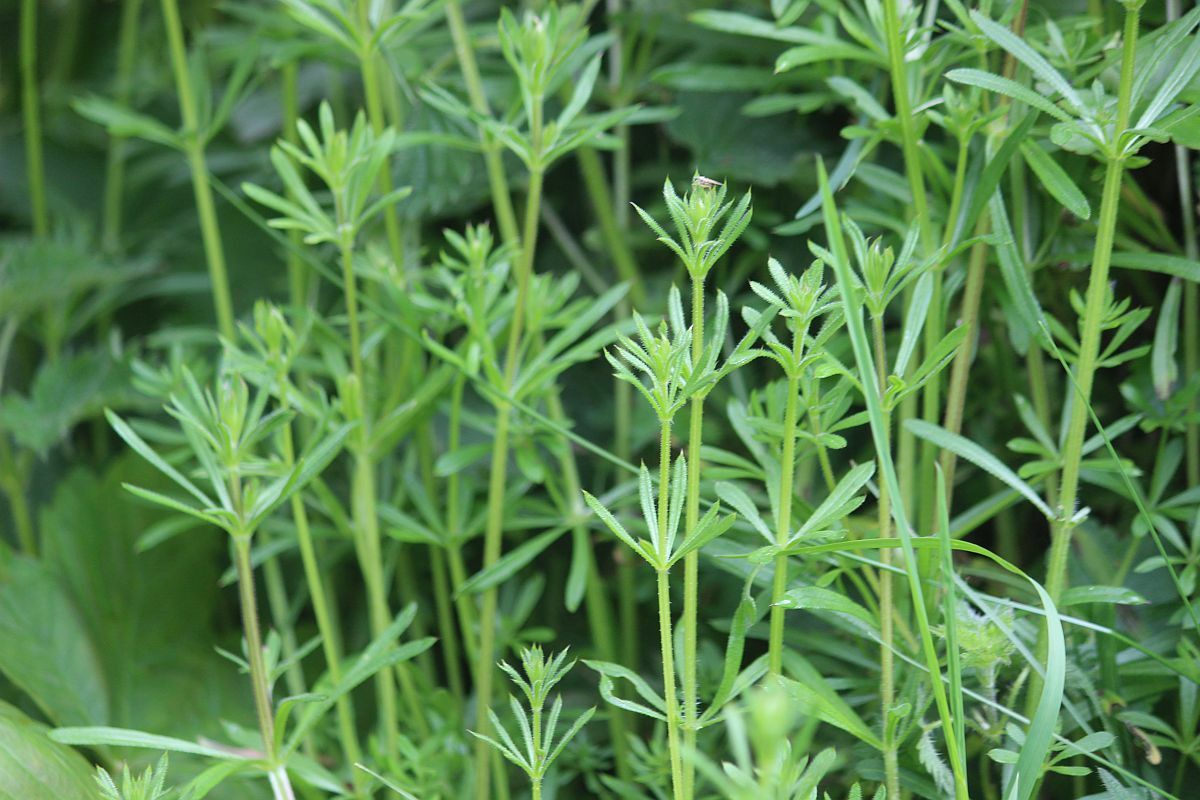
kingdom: Plantae
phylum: Tracheophyta
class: Magnoliopsida
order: Gentianales
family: Rubiaceae
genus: Galium
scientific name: Galium aparine
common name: Cleavers
